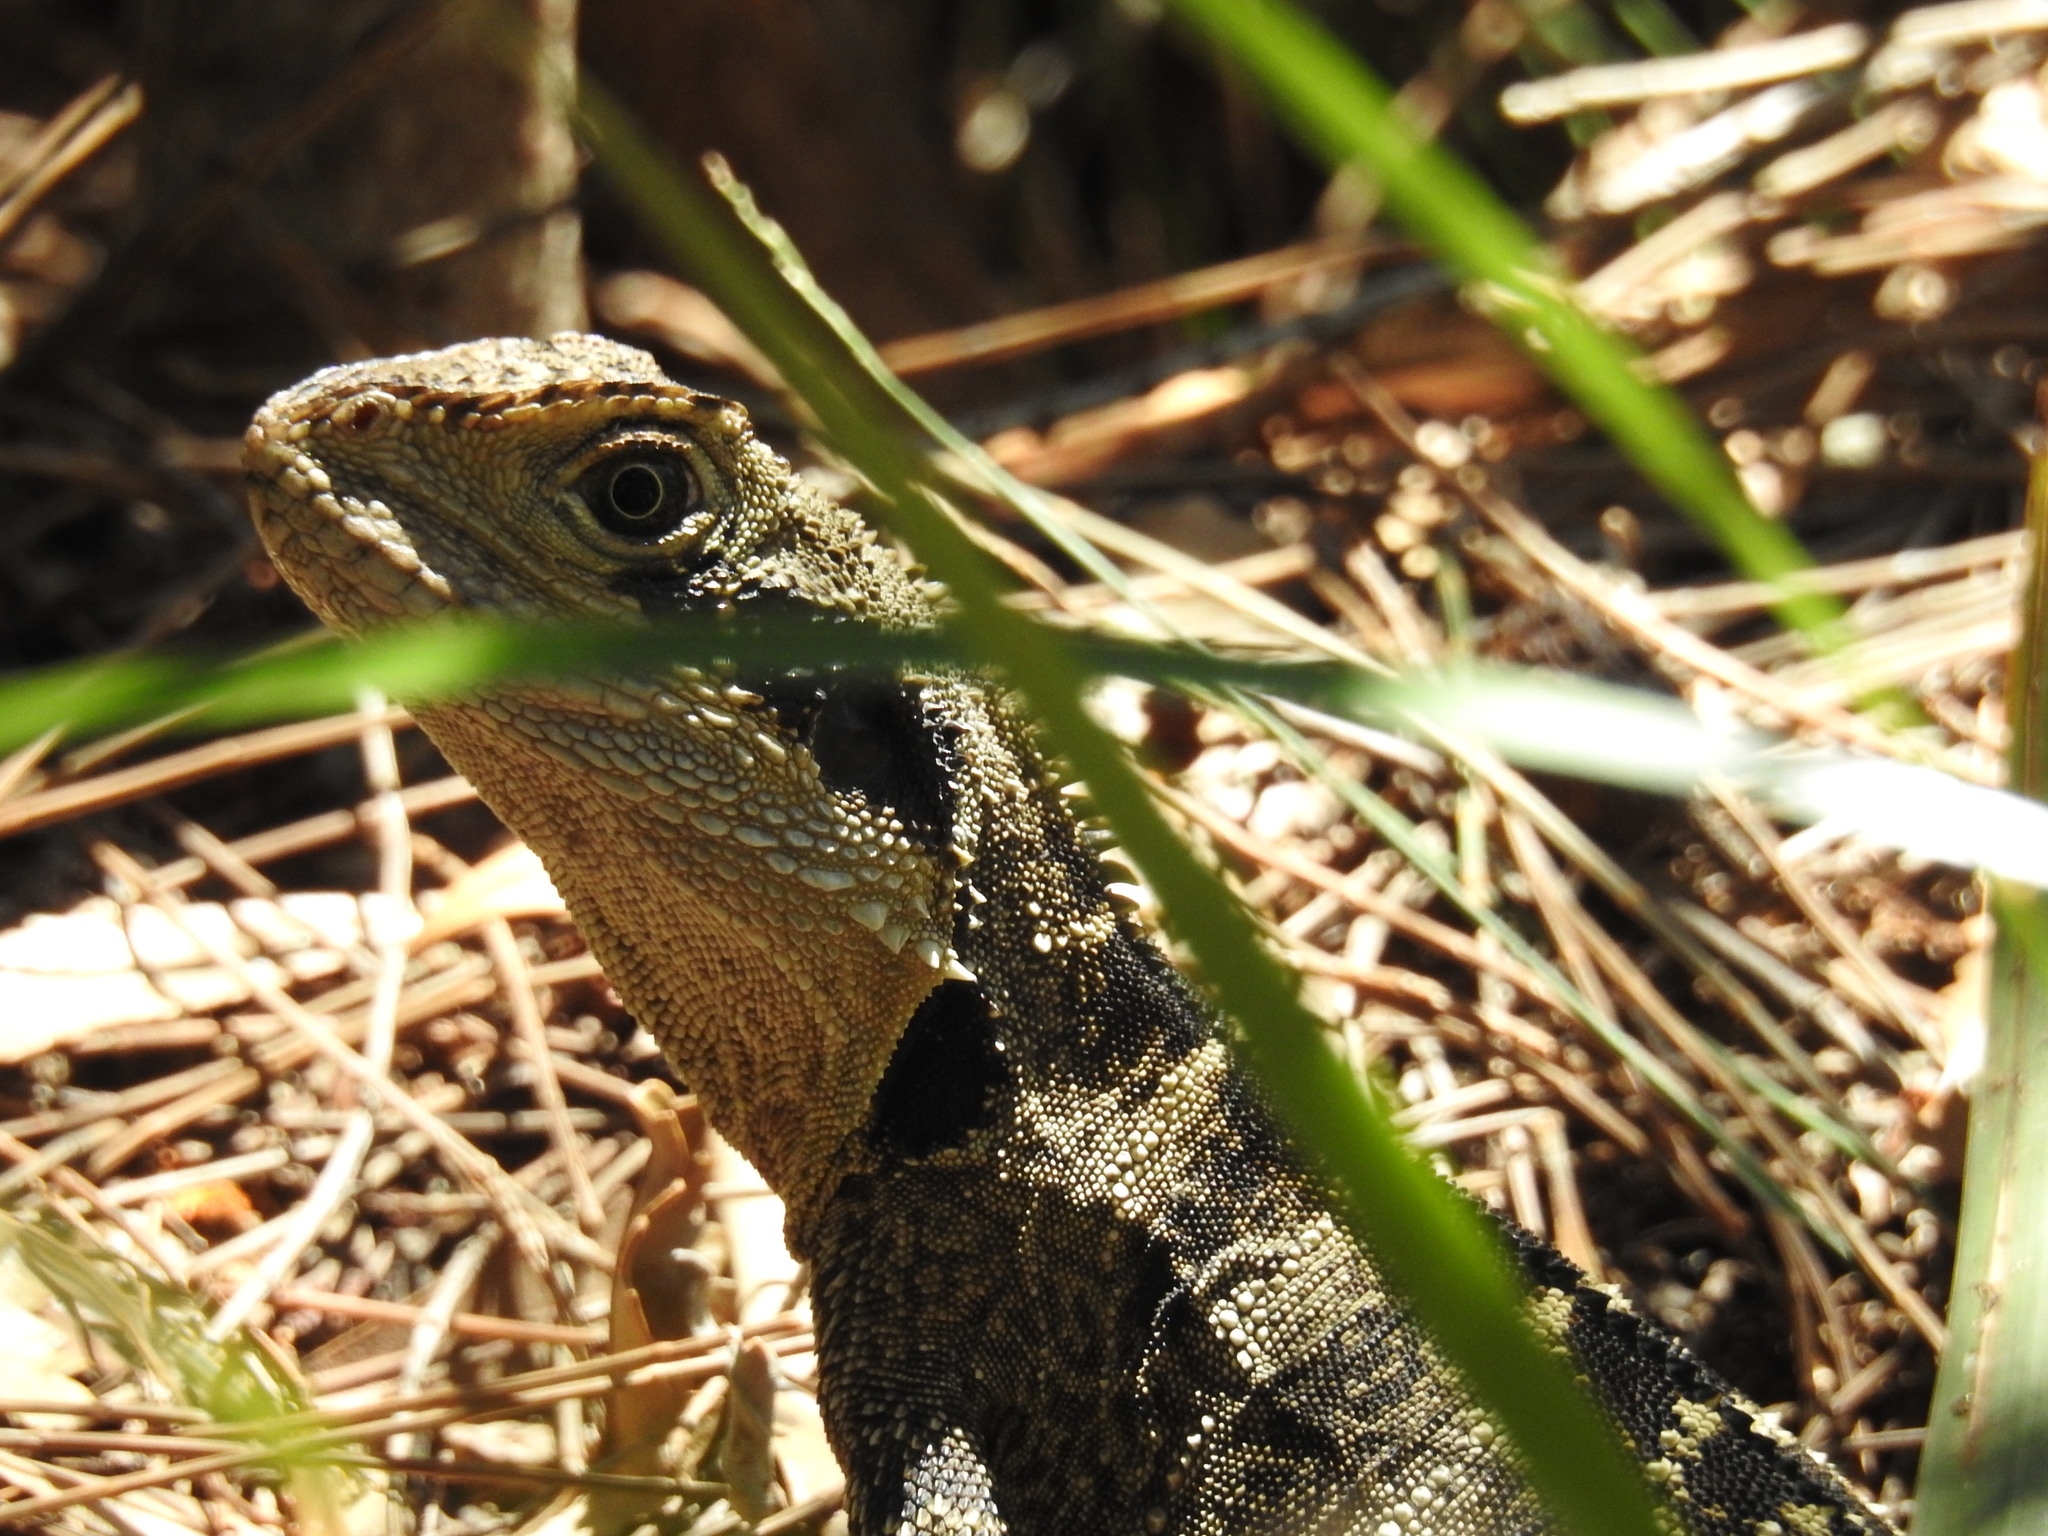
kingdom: Animalia
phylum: Chordata
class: Squamata
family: Agamidae
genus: Intellagama
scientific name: Intellagama lesueurii
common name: Eastern water dragon
